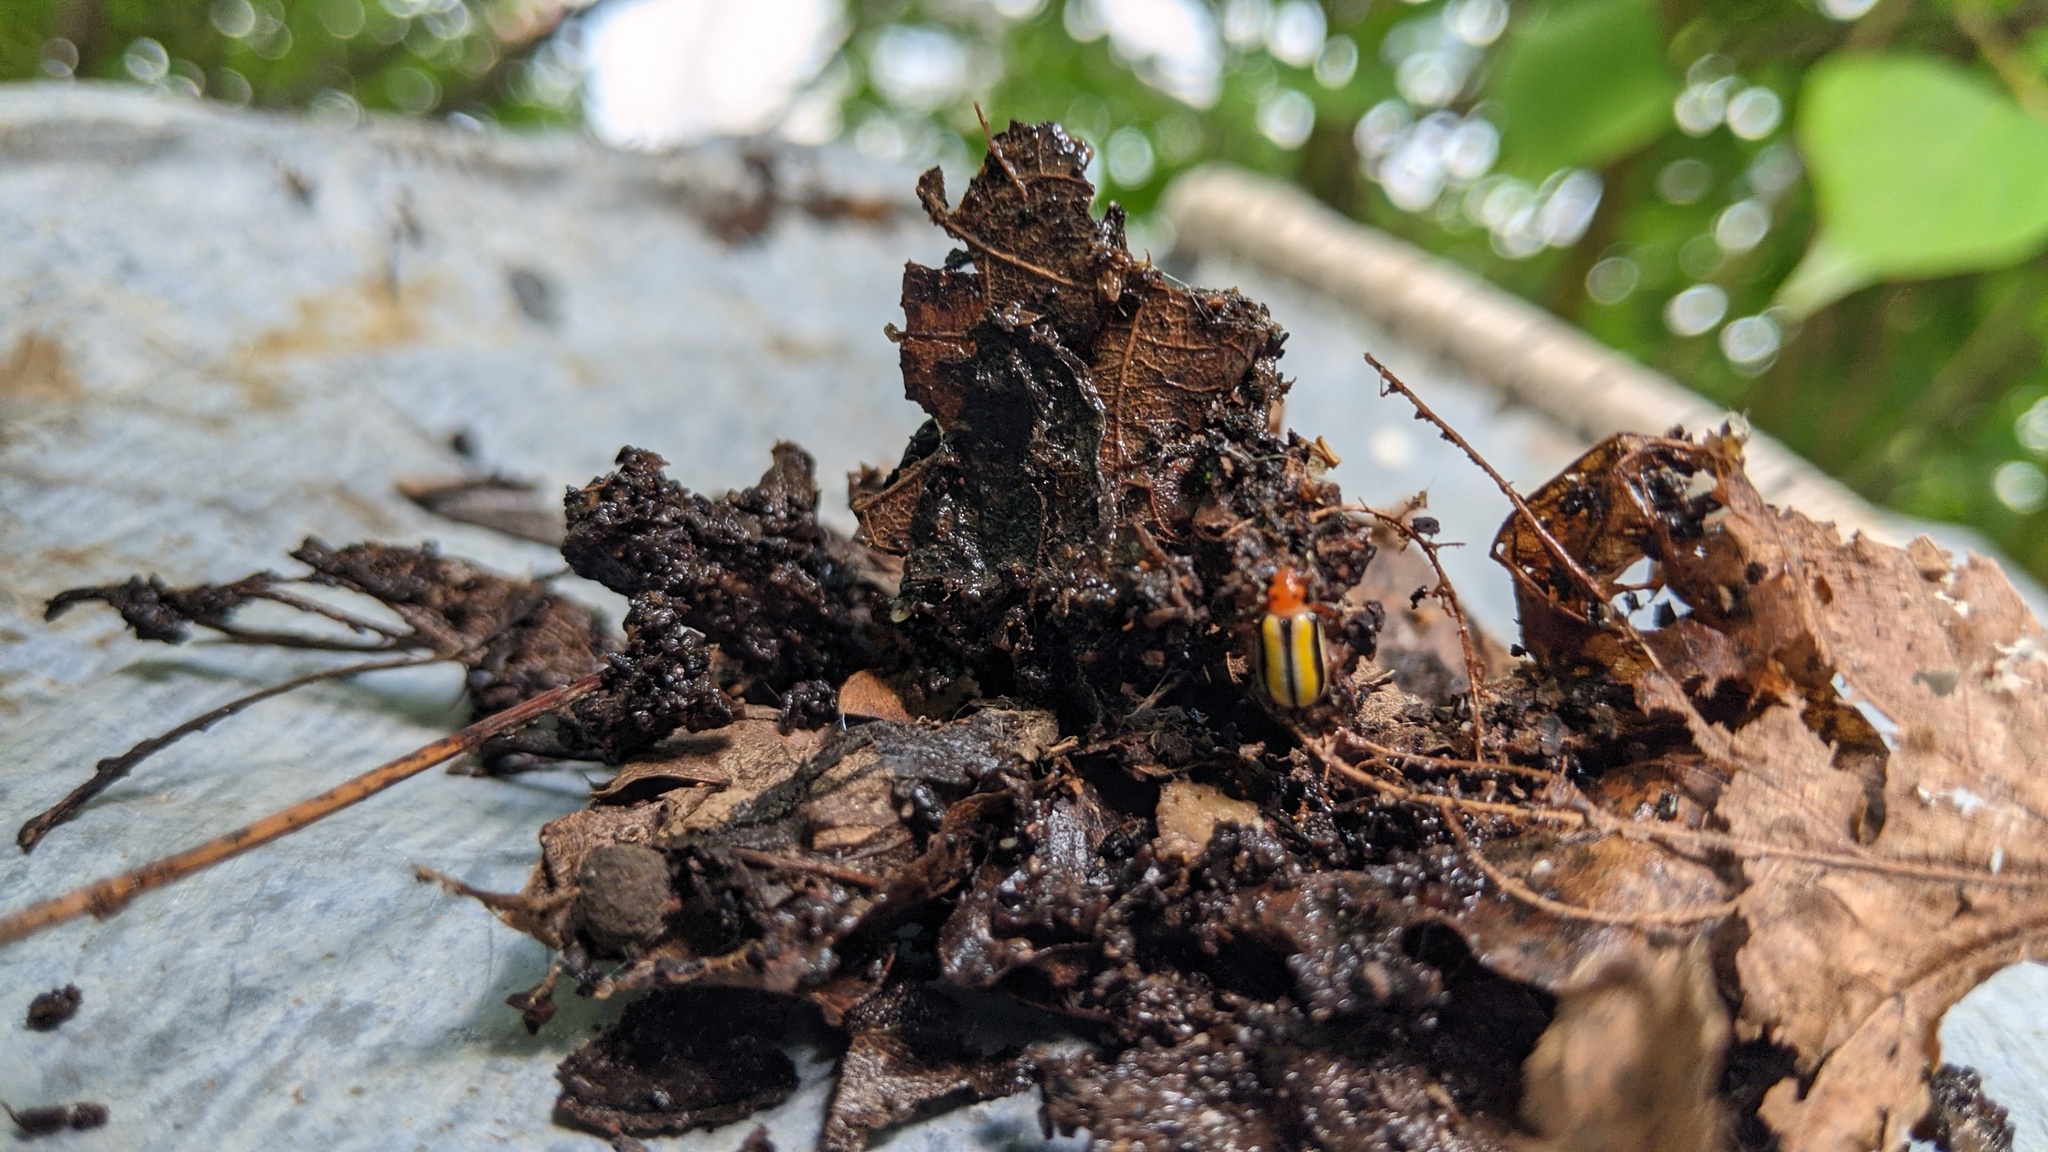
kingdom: Animalia
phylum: Arthropoda
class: Insecta
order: Coleoptera
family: Chrysomelidae
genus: Lema
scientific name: Lema daturaphila
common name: Leaf beetle
